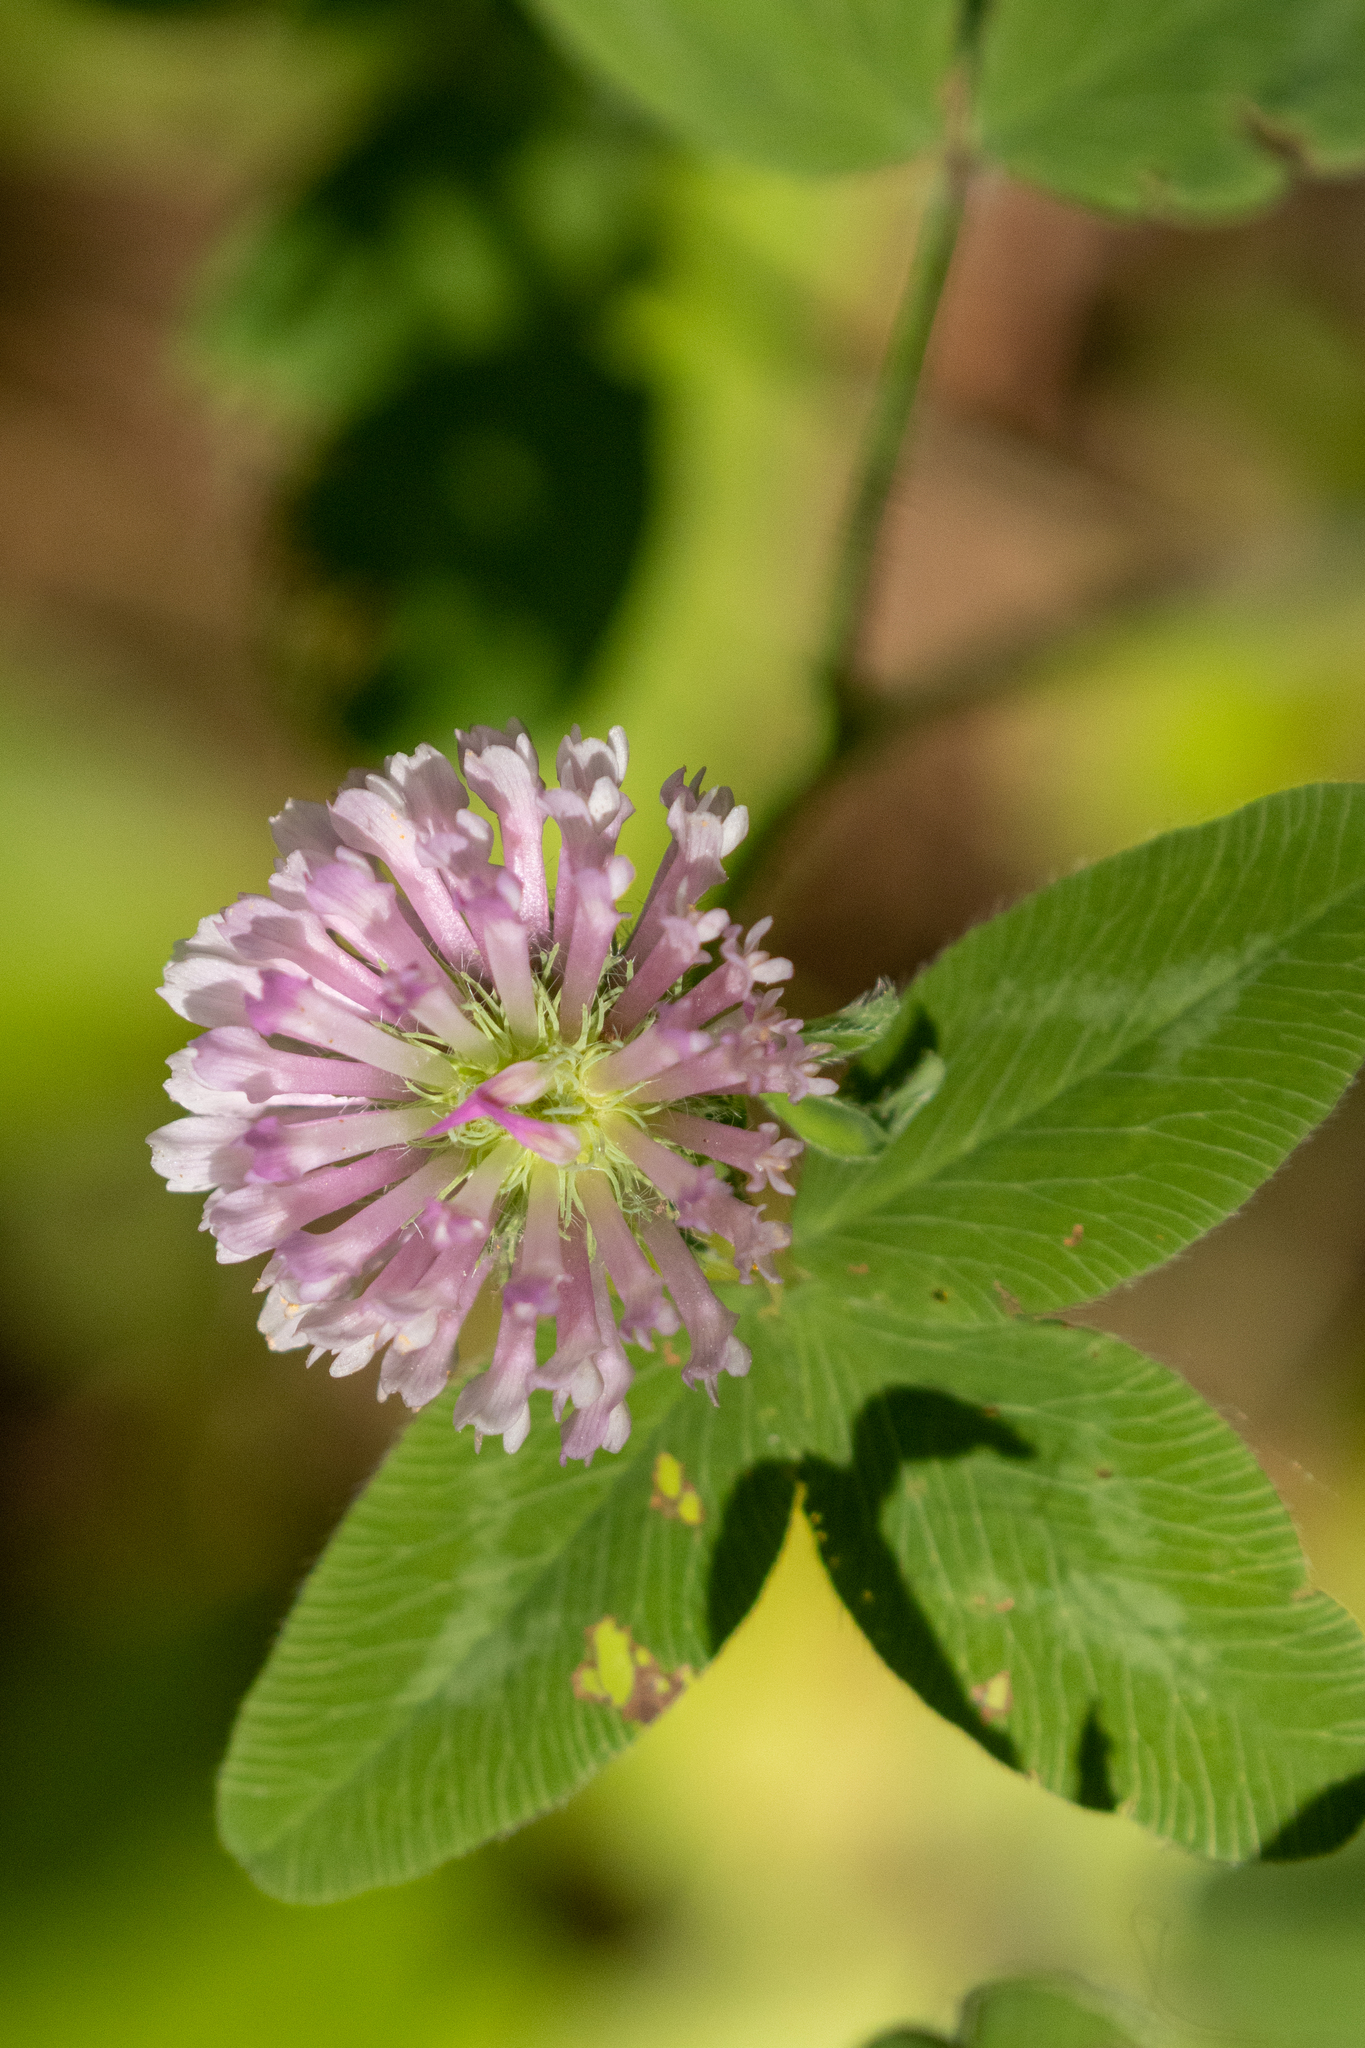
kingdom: Plantae
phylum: Tracheophyta
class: Magnoliopsida
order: Fabales
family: Fabaceae
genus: Trifolium
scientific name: Trifolium pratense
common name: Red clover
